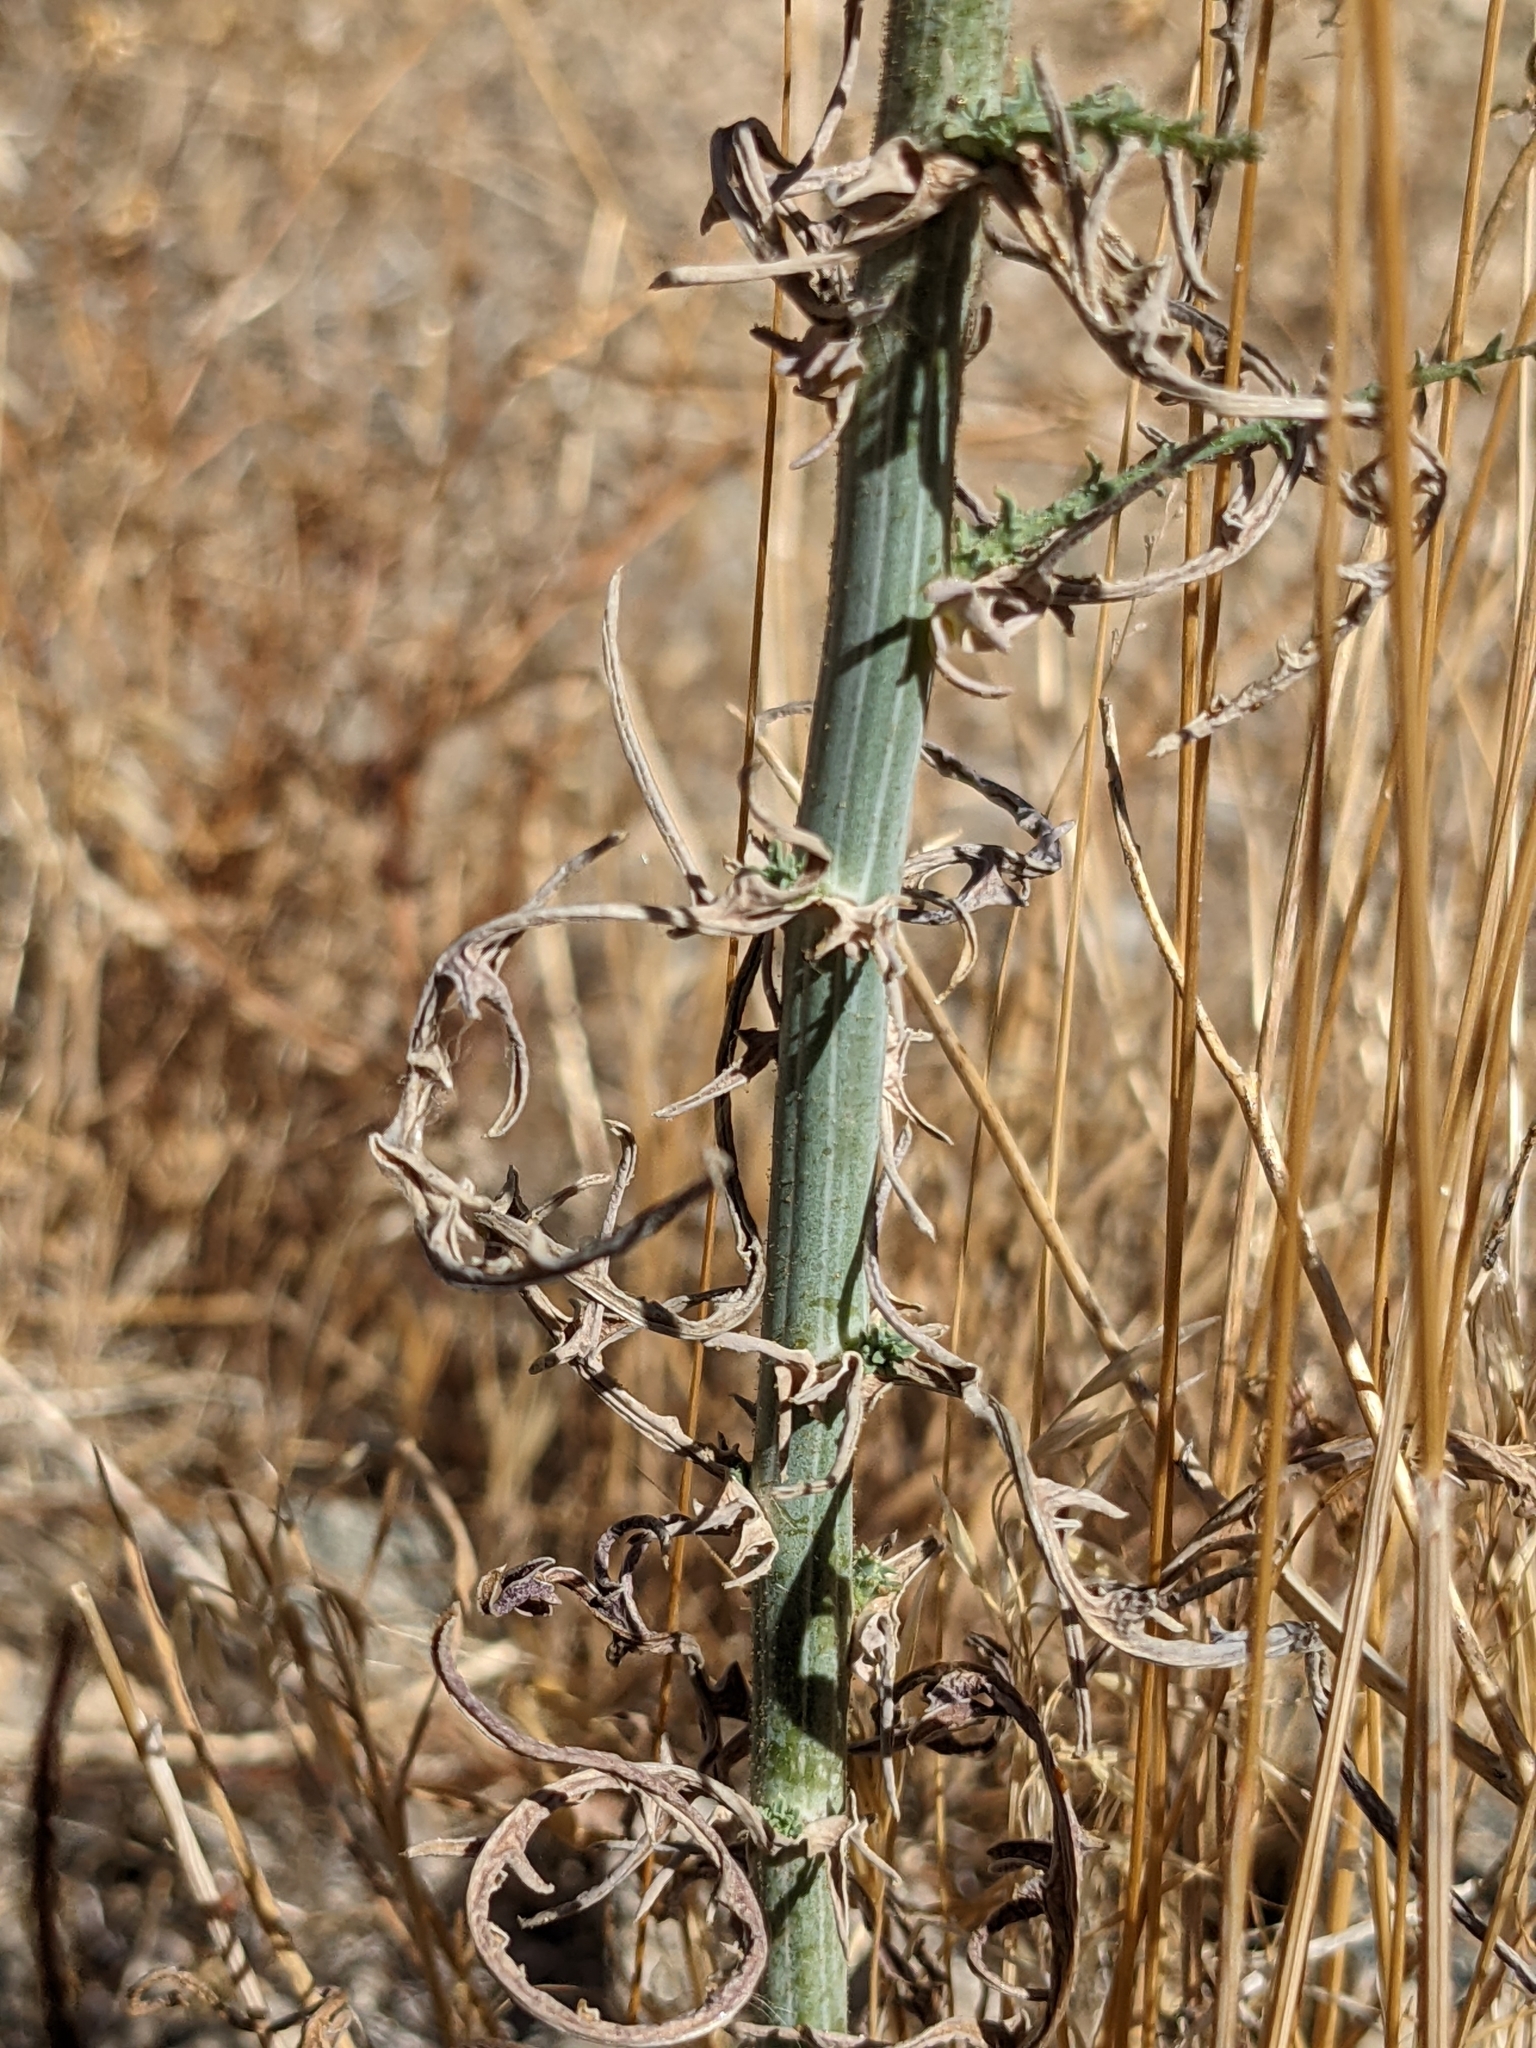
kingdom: Plantae
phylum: Tracheophyta
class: Magnoliopsida
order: Asterales
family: Asteraceae
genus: Stephanomeria
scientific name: Stephanomeria exigua
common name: Small wirelettuce
